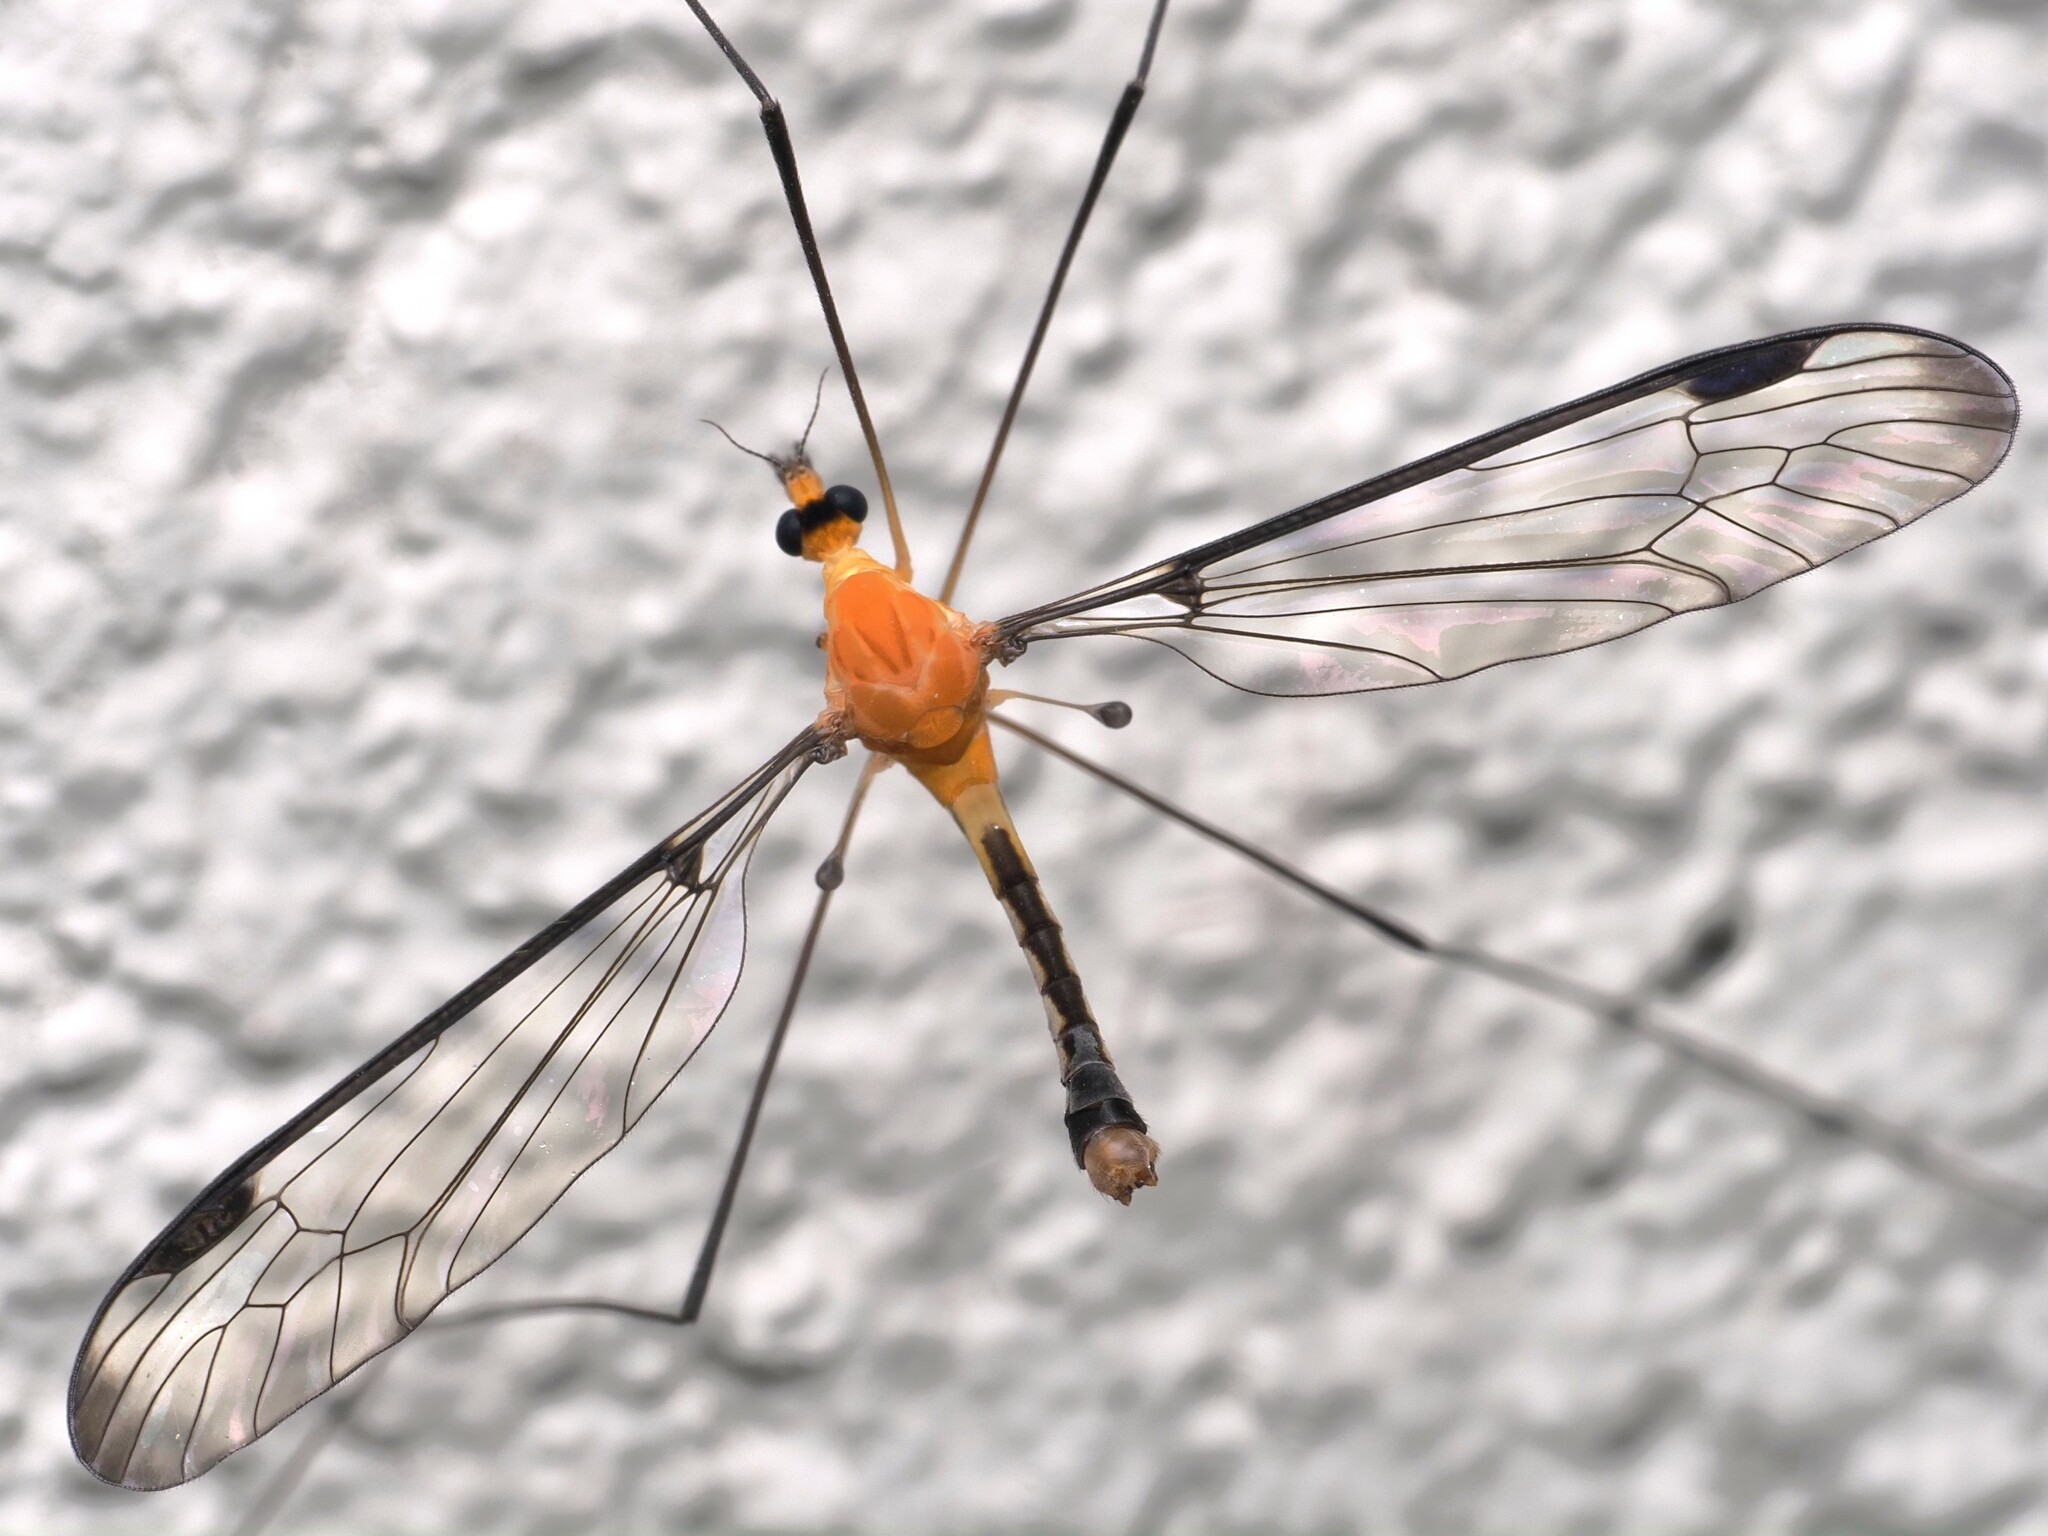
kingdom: Animalia
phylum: Arthropoda
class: Insecta
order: Diptera
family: Tipulidae
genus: Aurotipula
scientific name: Aurotipula
